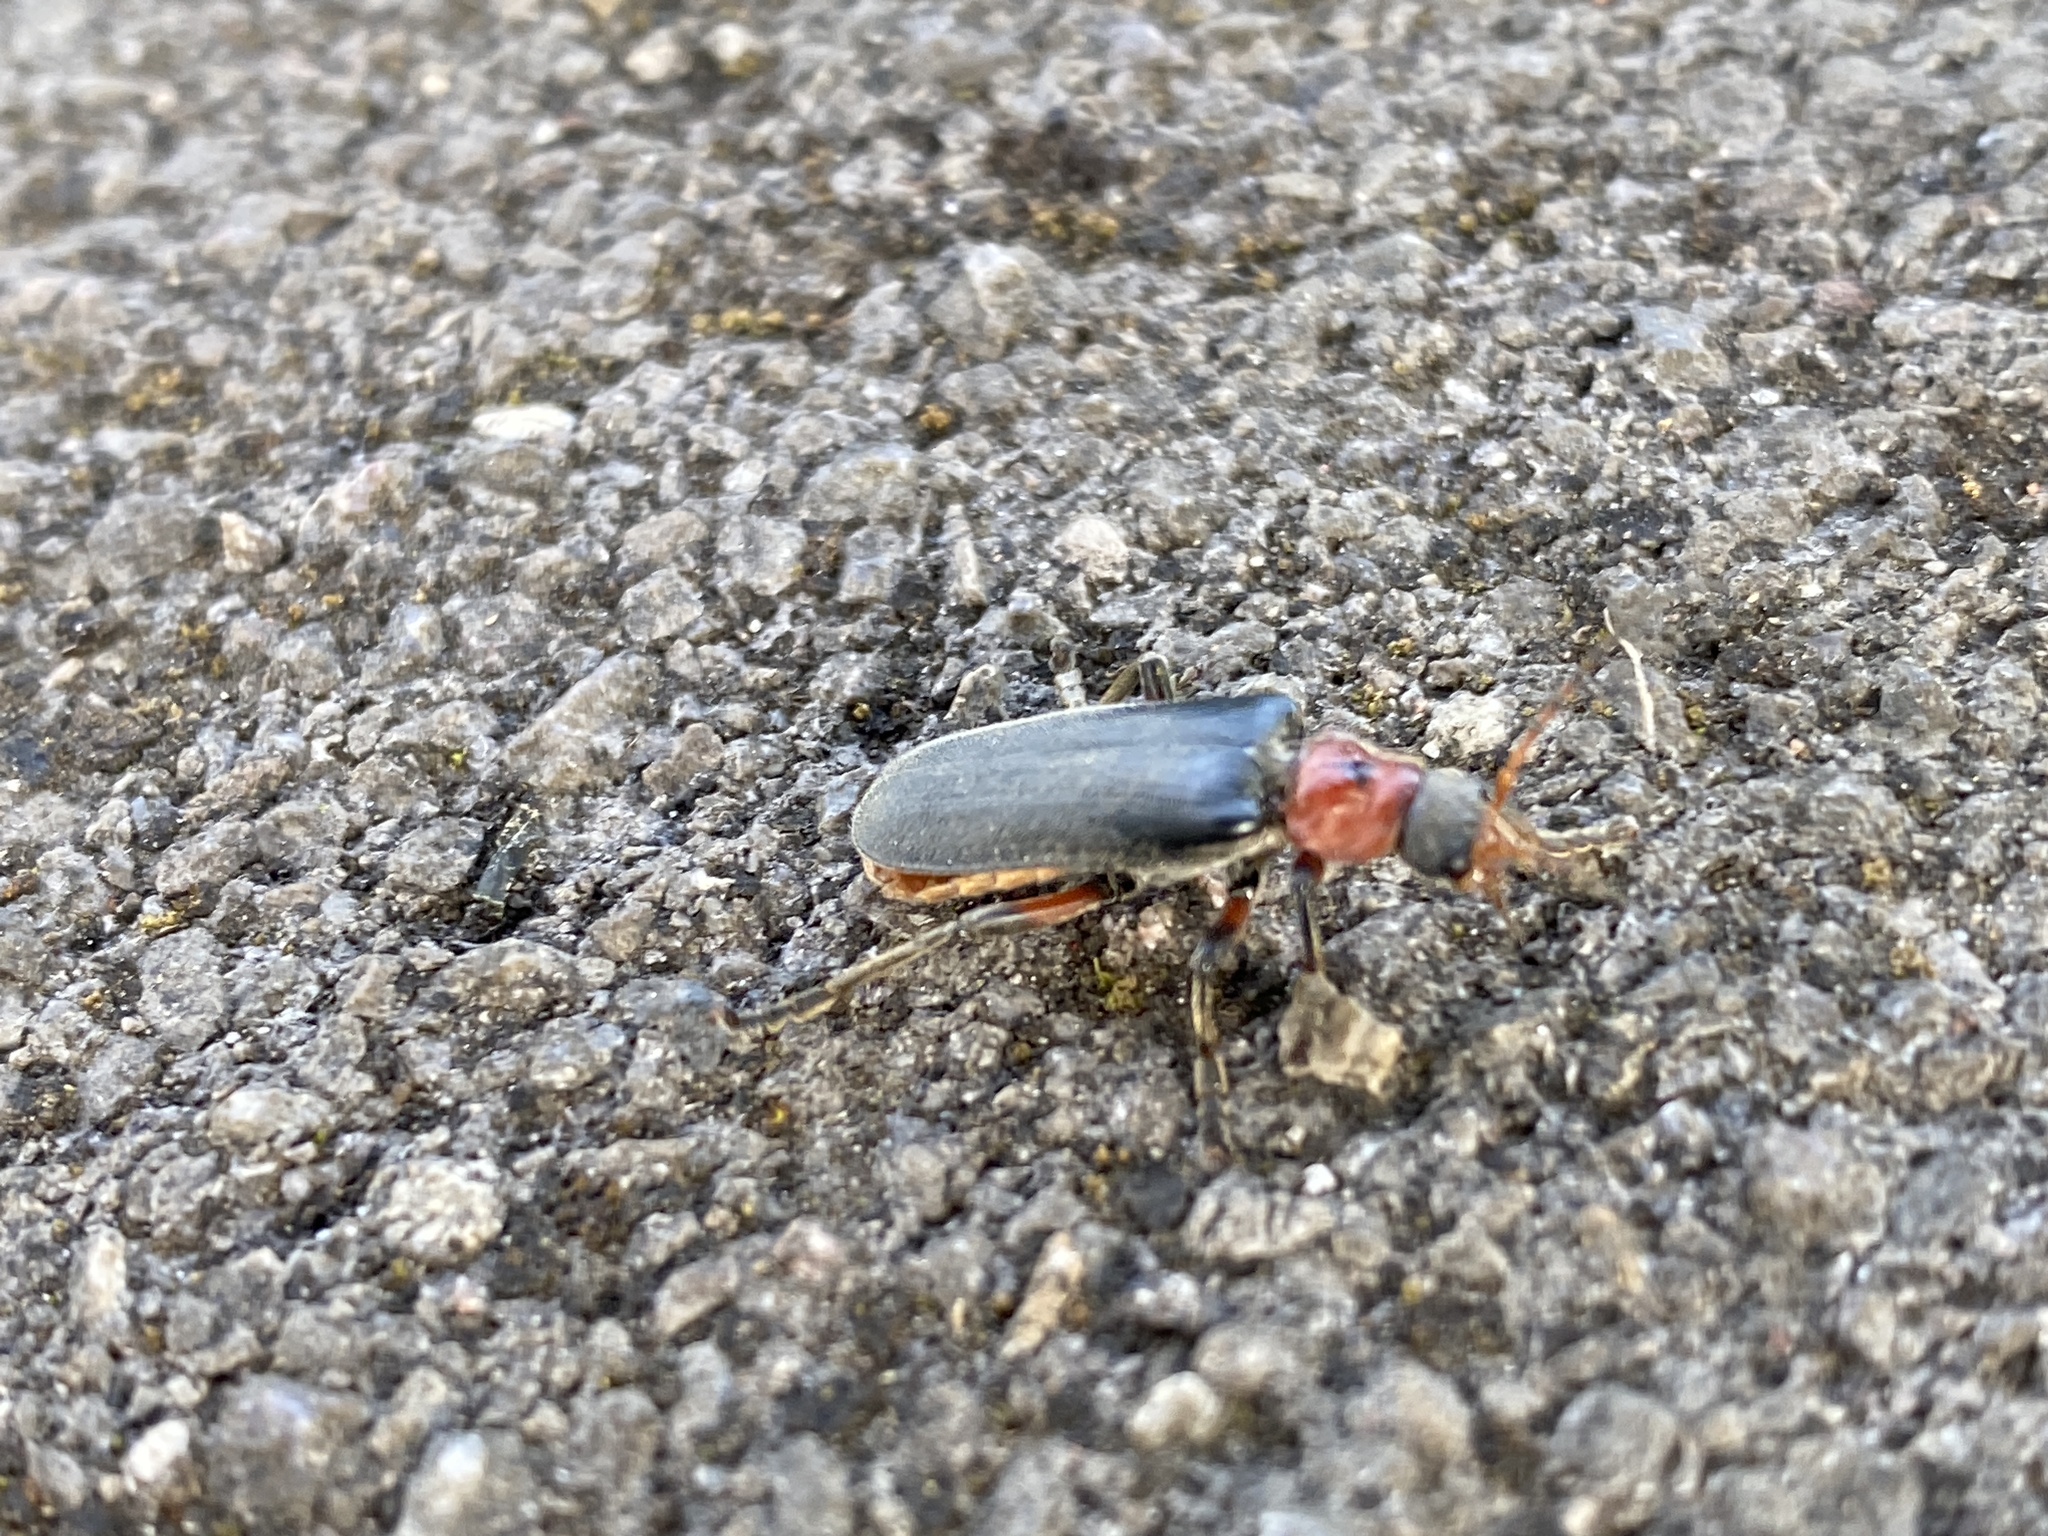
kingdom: Animalia
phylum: Arthropoda
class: Insecta
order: Coleoptera
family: Cantharidae
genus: Cantharis
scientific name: Cantharis rustica
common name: Soldier beetle
